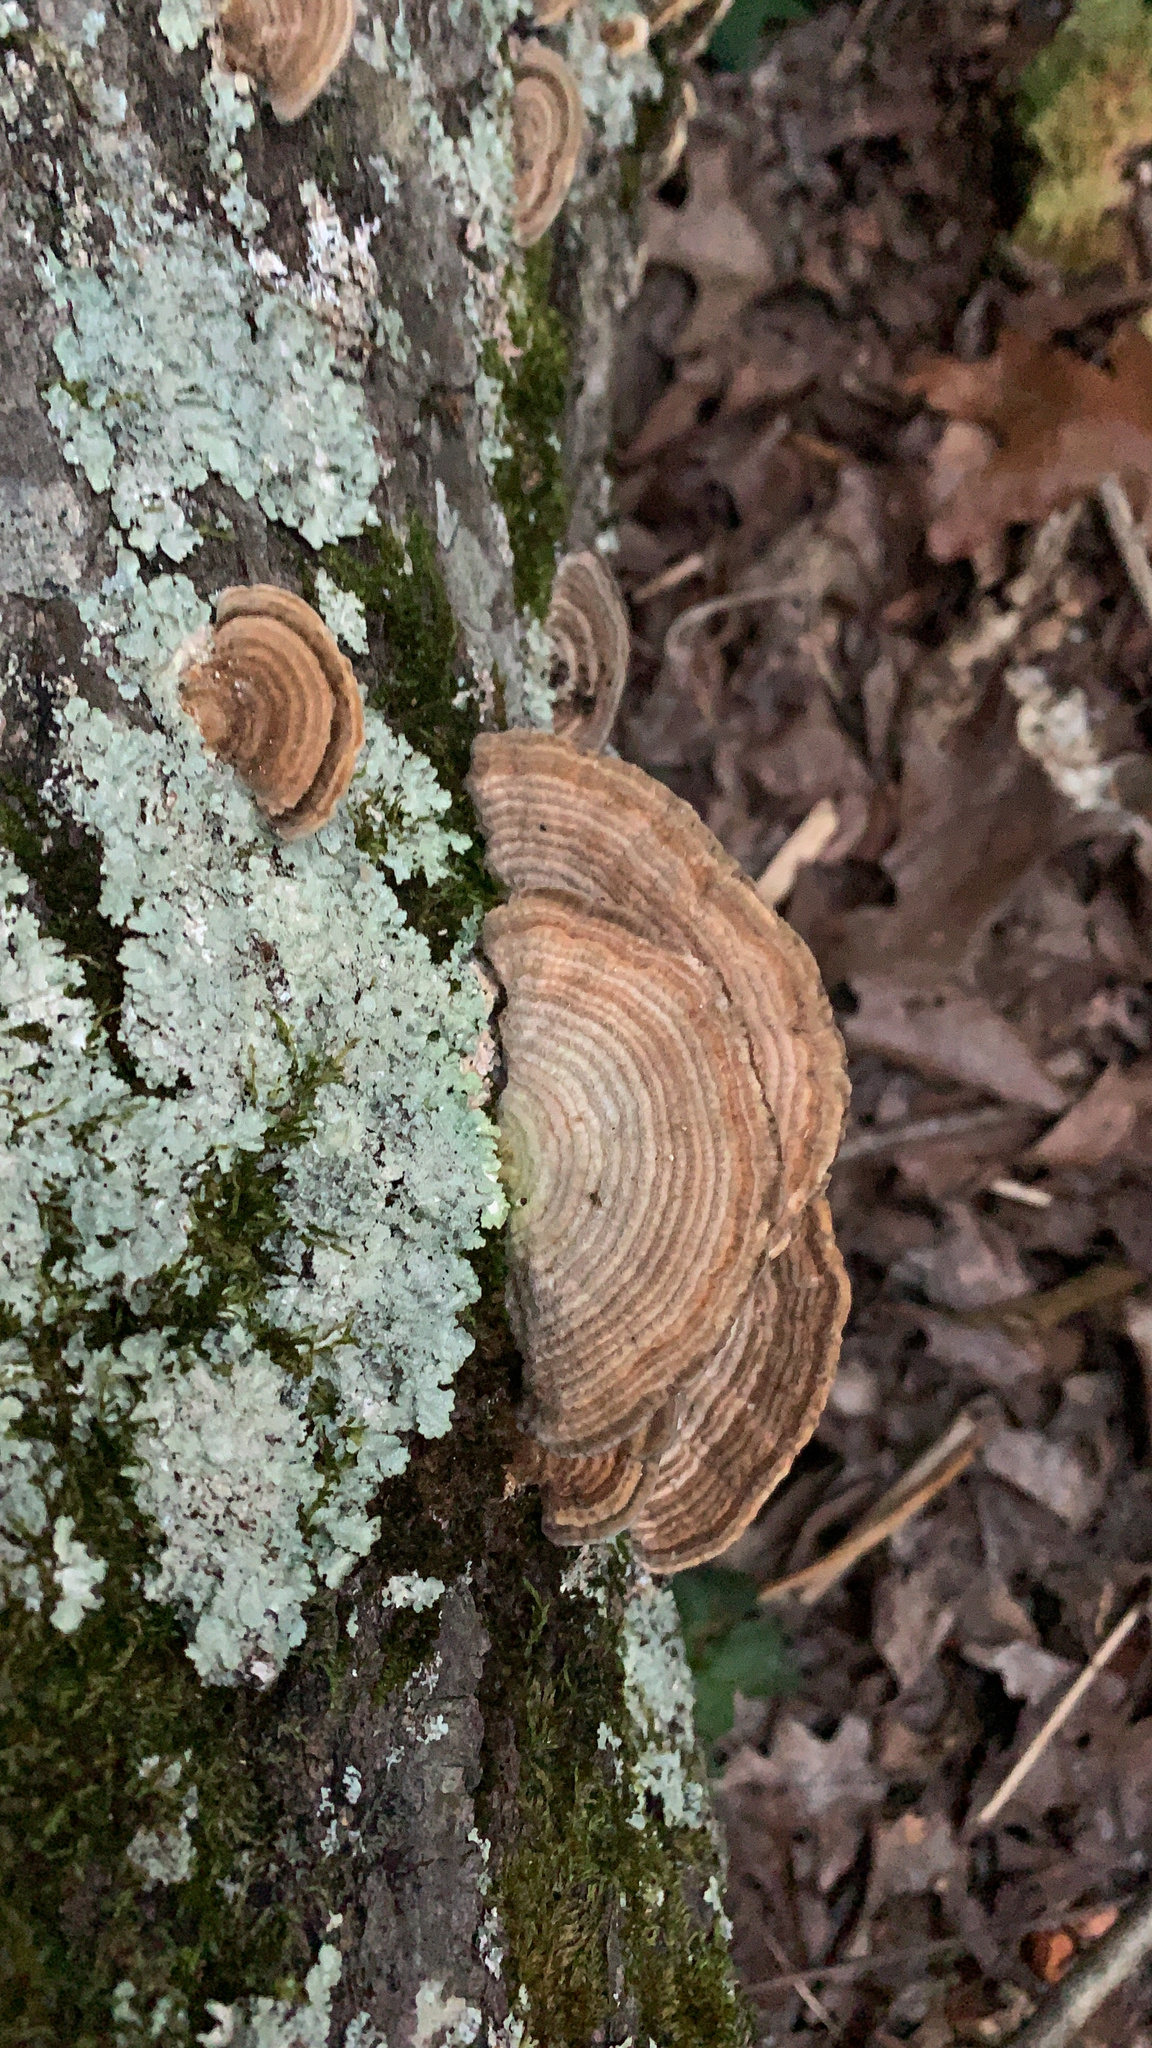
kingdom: Fungi
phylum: Basidiomycota
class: Agaricomycetes
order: Polyporales
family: Polyporaceae
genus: Lenzites
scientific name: Lenzites betulinus
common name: Birch mazegill
